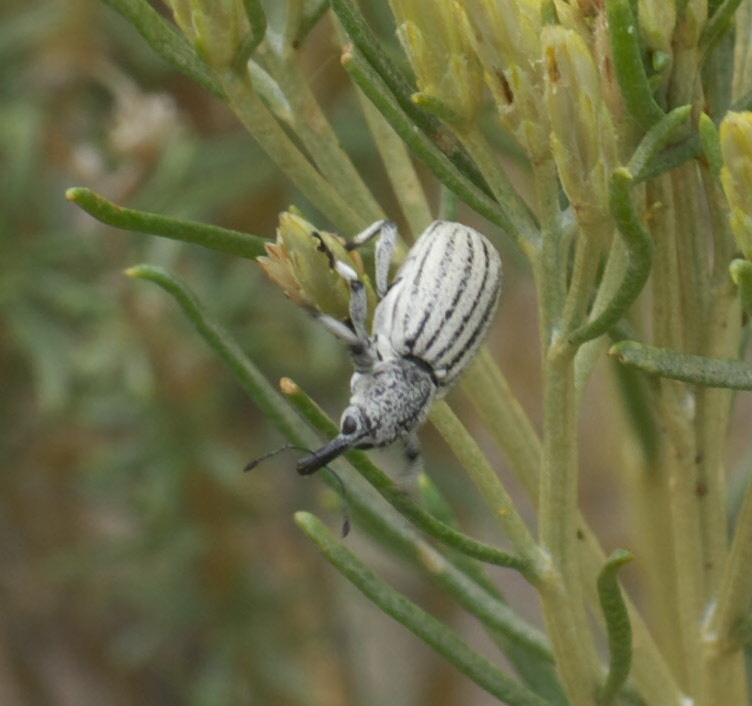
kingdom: Animalia
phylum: Arthropoda
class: Insecta
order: Coleoptera
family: Curculionidae
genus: Myrmex
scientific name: Myrmex lineatus
